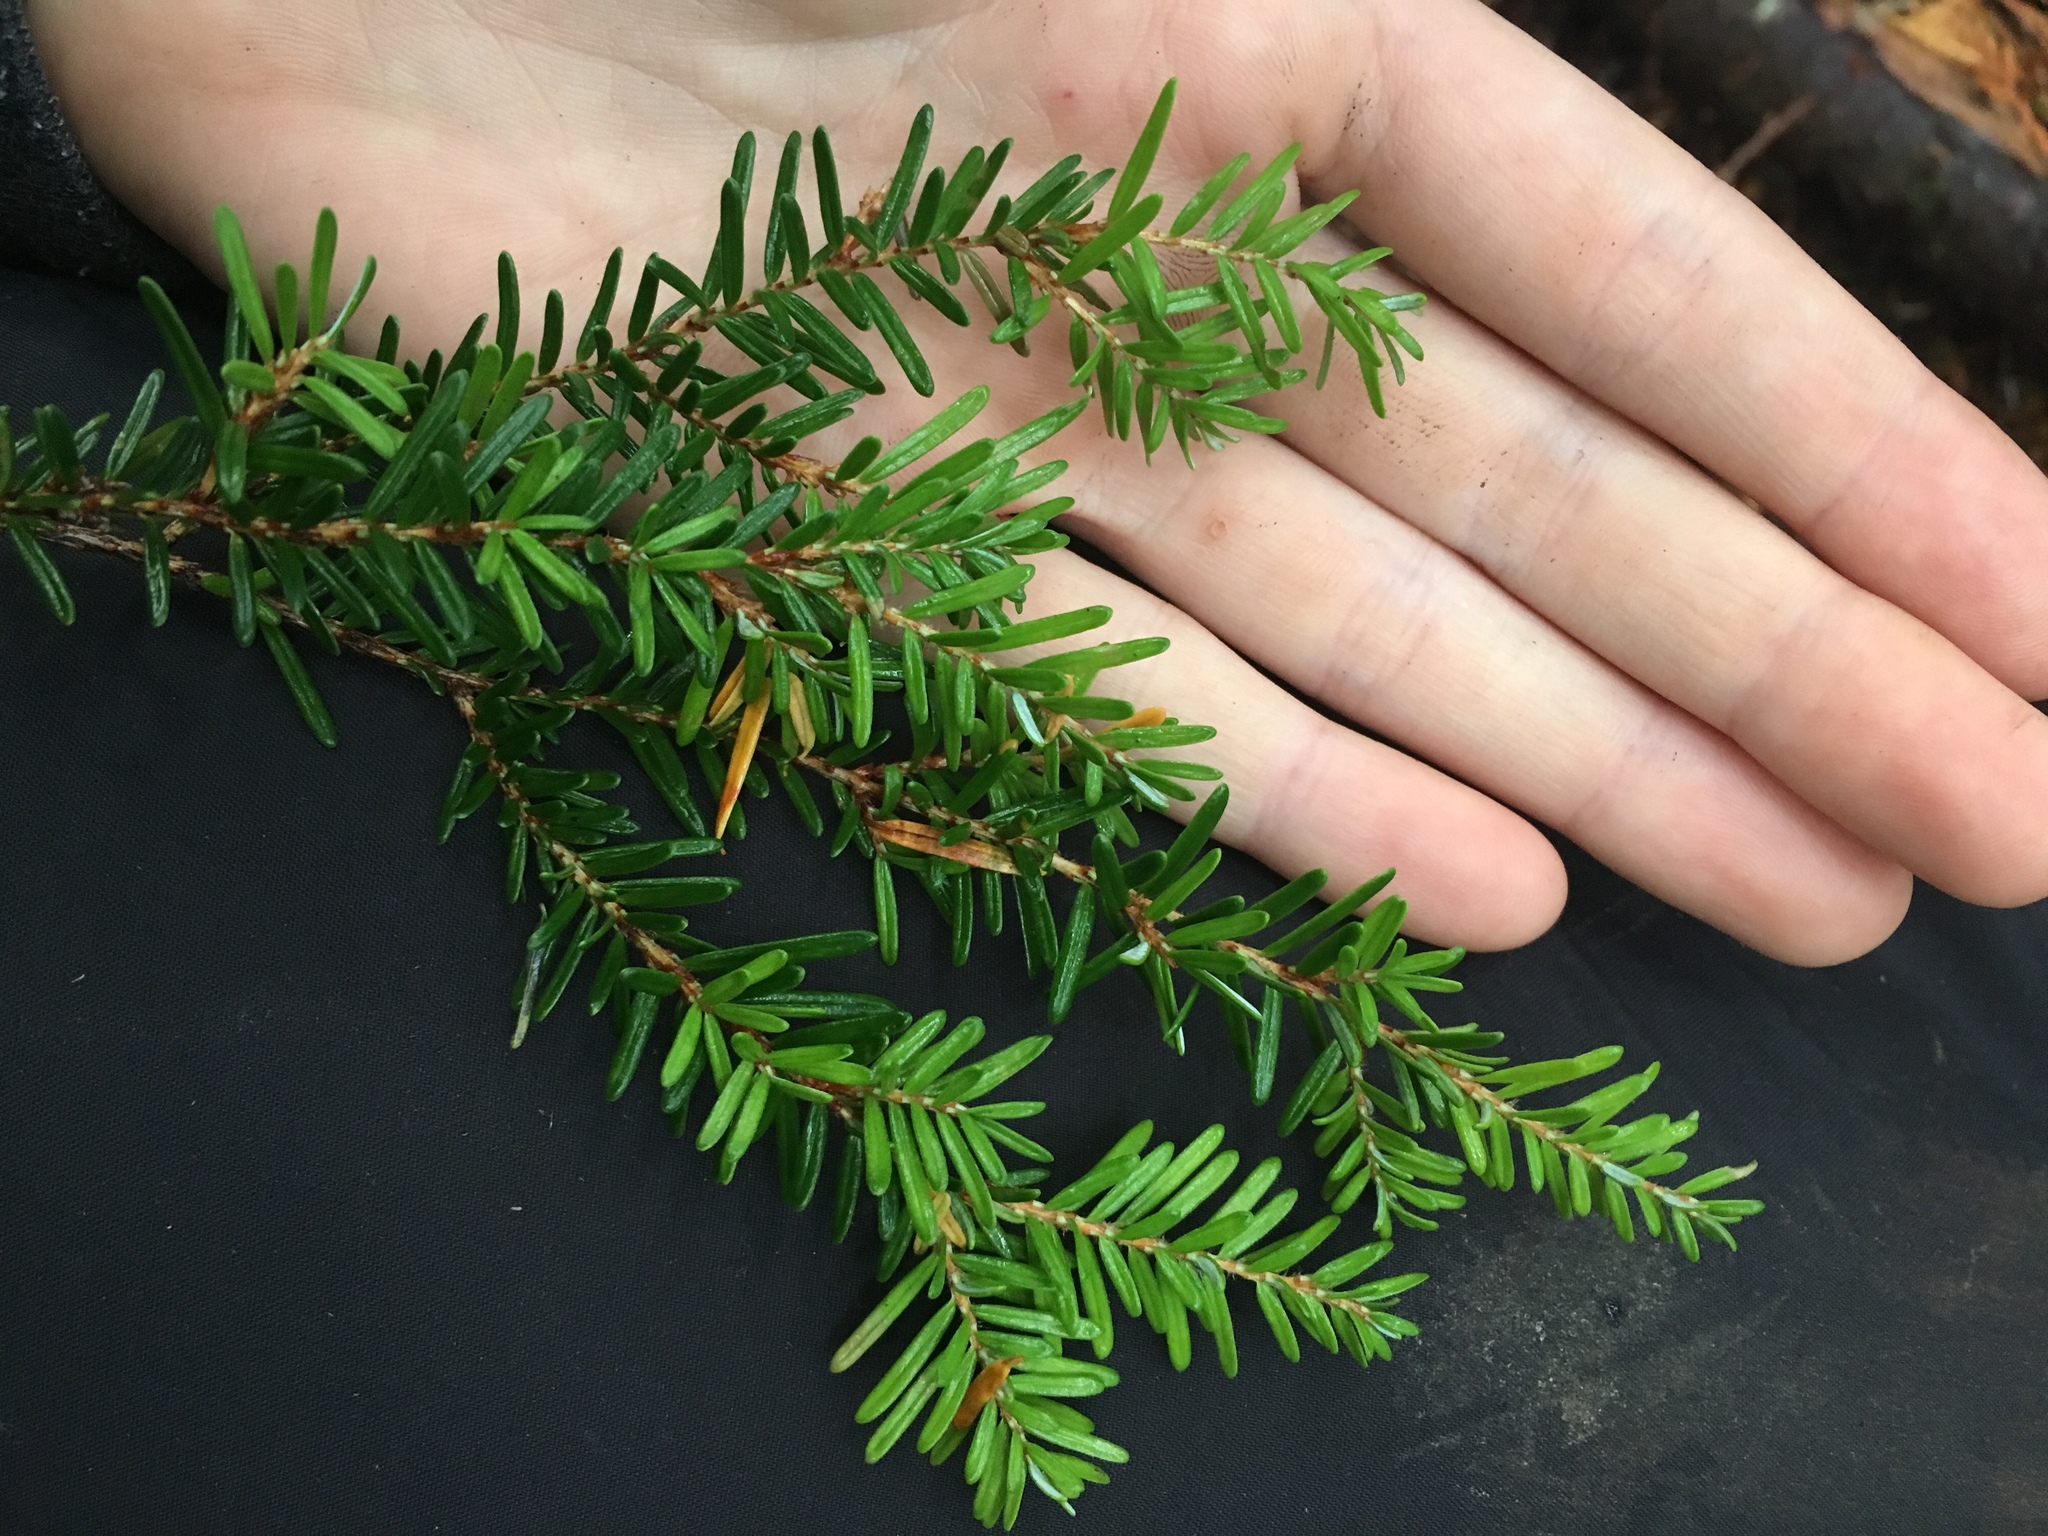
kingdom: Plantae
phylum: Tracheophyta
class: Pinopsida
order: Pinales
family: Pinaceae
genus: Tsuga
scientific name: Tsuga heterophylla
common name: Western hemlock
